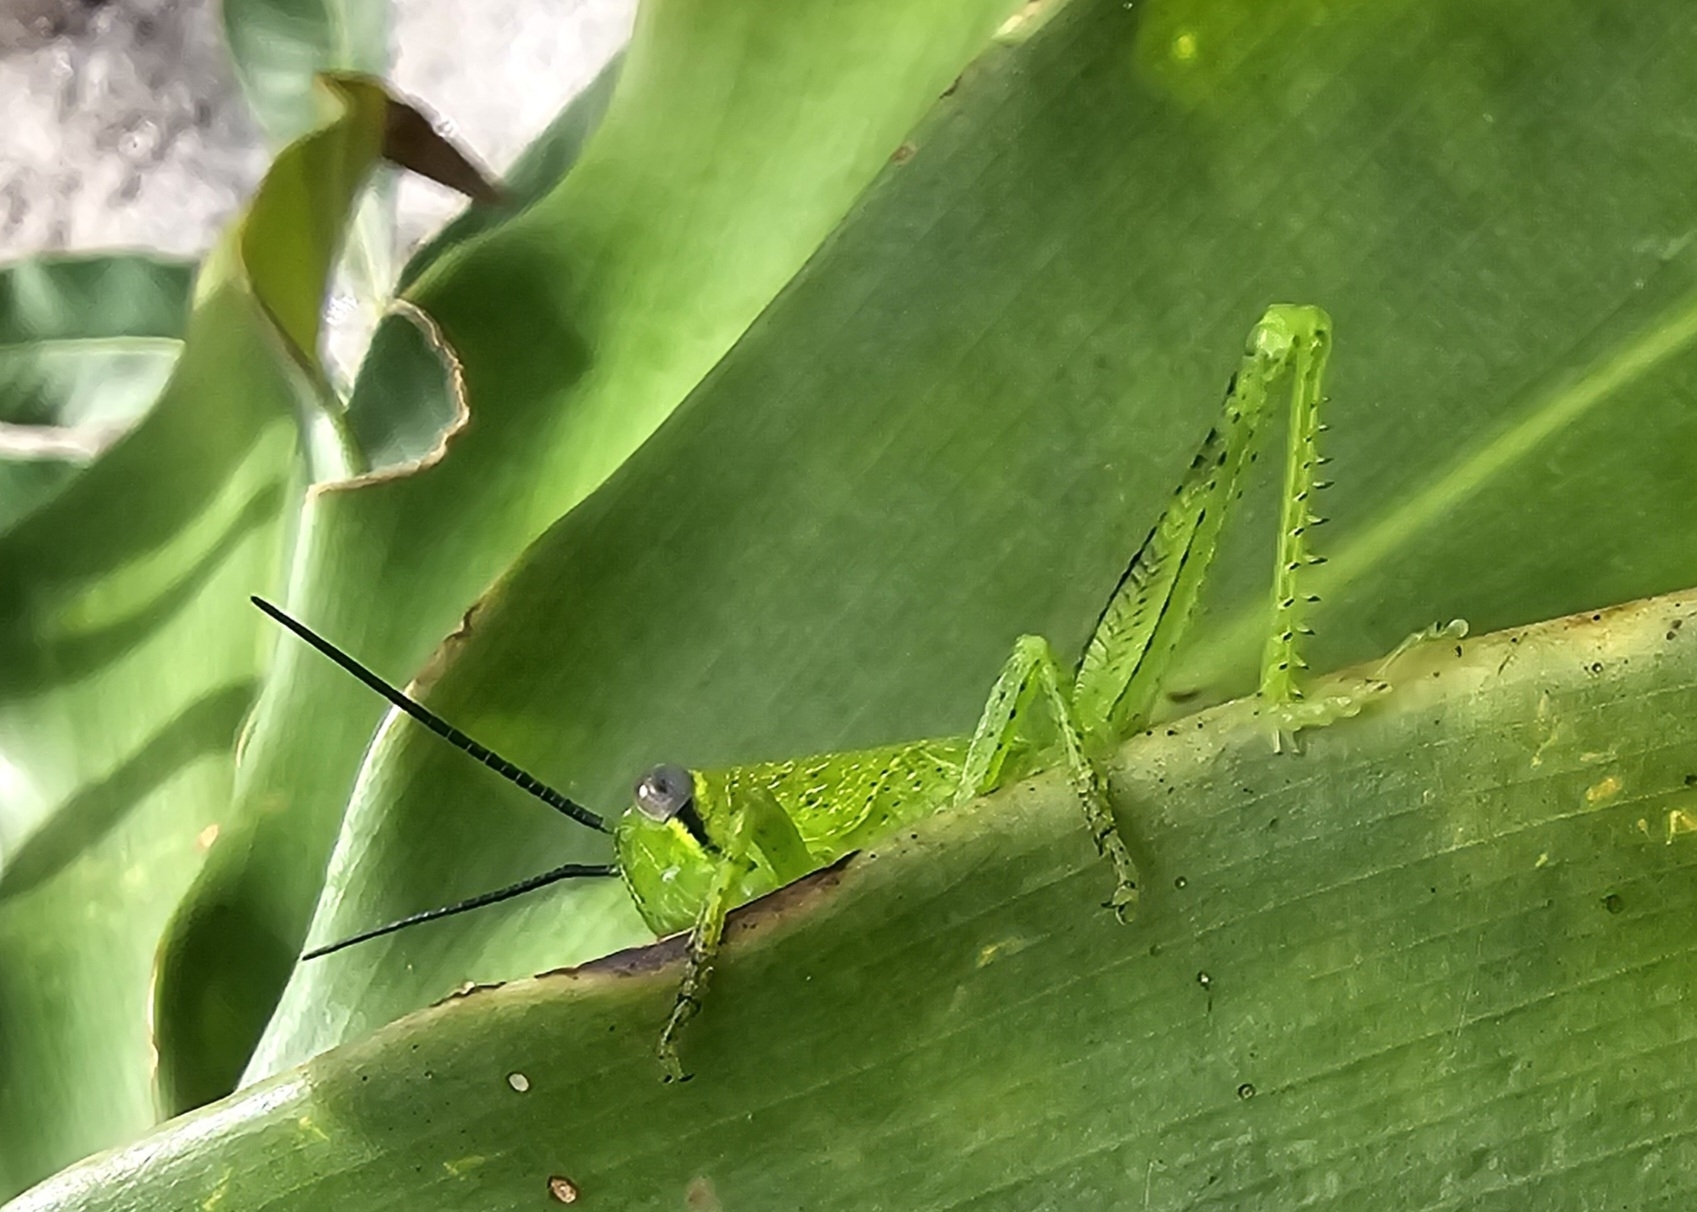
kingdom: Animalia
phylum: Arthropoda
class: Insecta
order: Orthoptera
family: Acrididae
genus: Valanga
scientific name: Valanga irregularis
